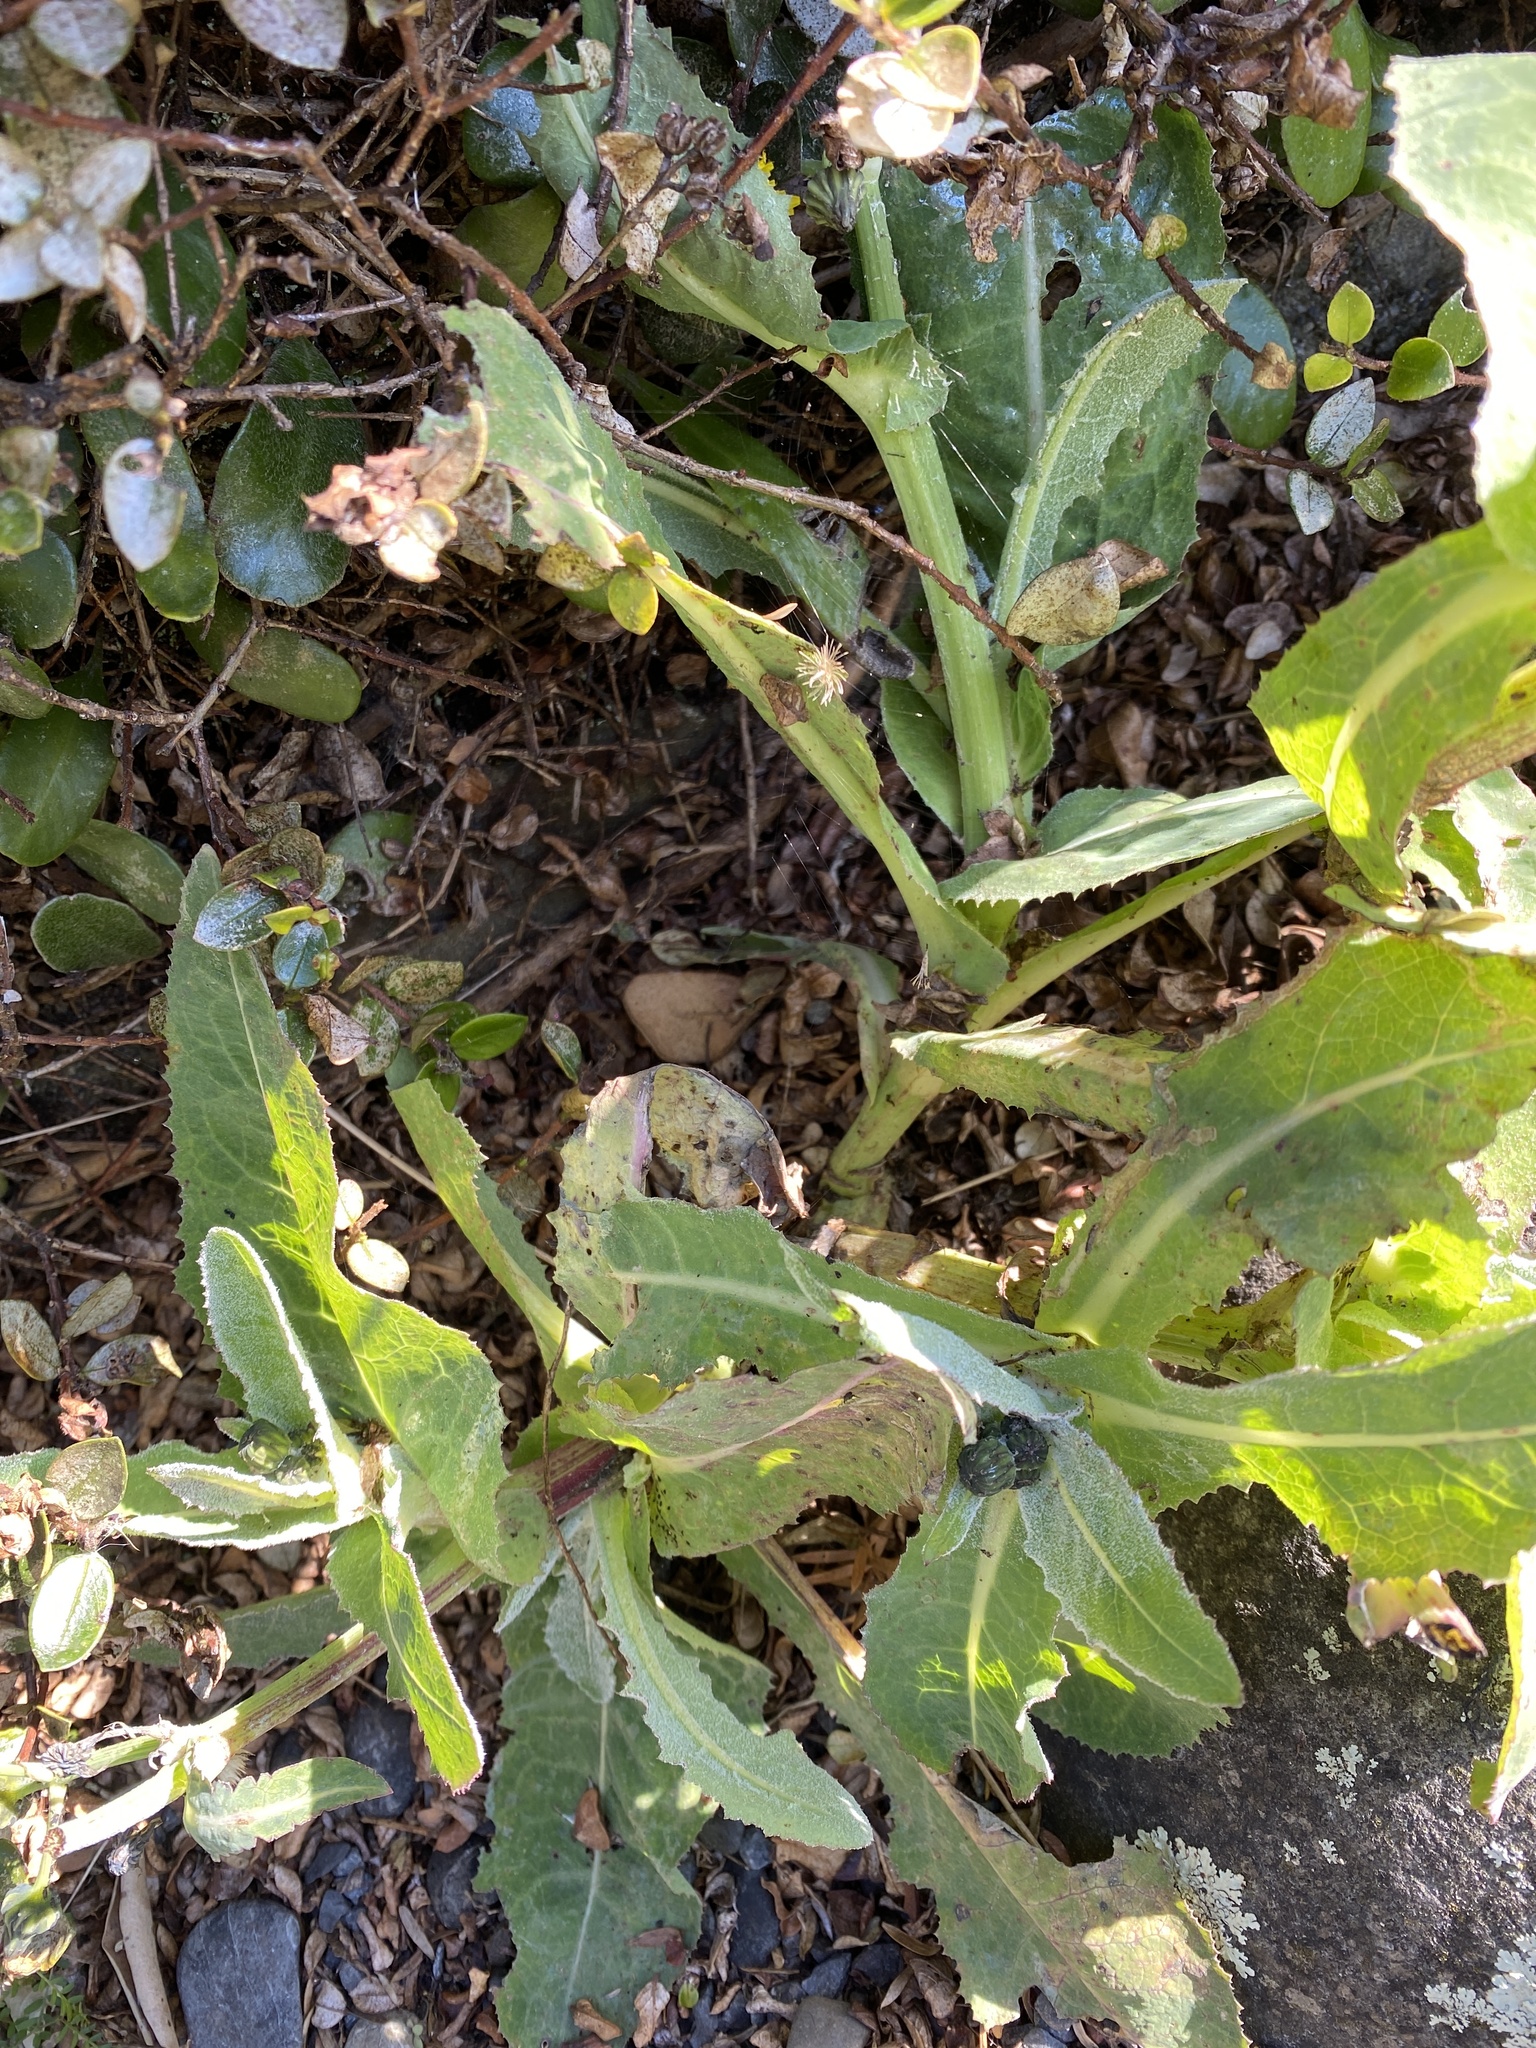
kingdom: Plantae
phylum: Tracheophyta
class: Magnoliopsida
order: Asterales
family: Asteraceae
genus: Sonchus
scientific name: Sonchus oleraceus
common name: Common sowthistle
